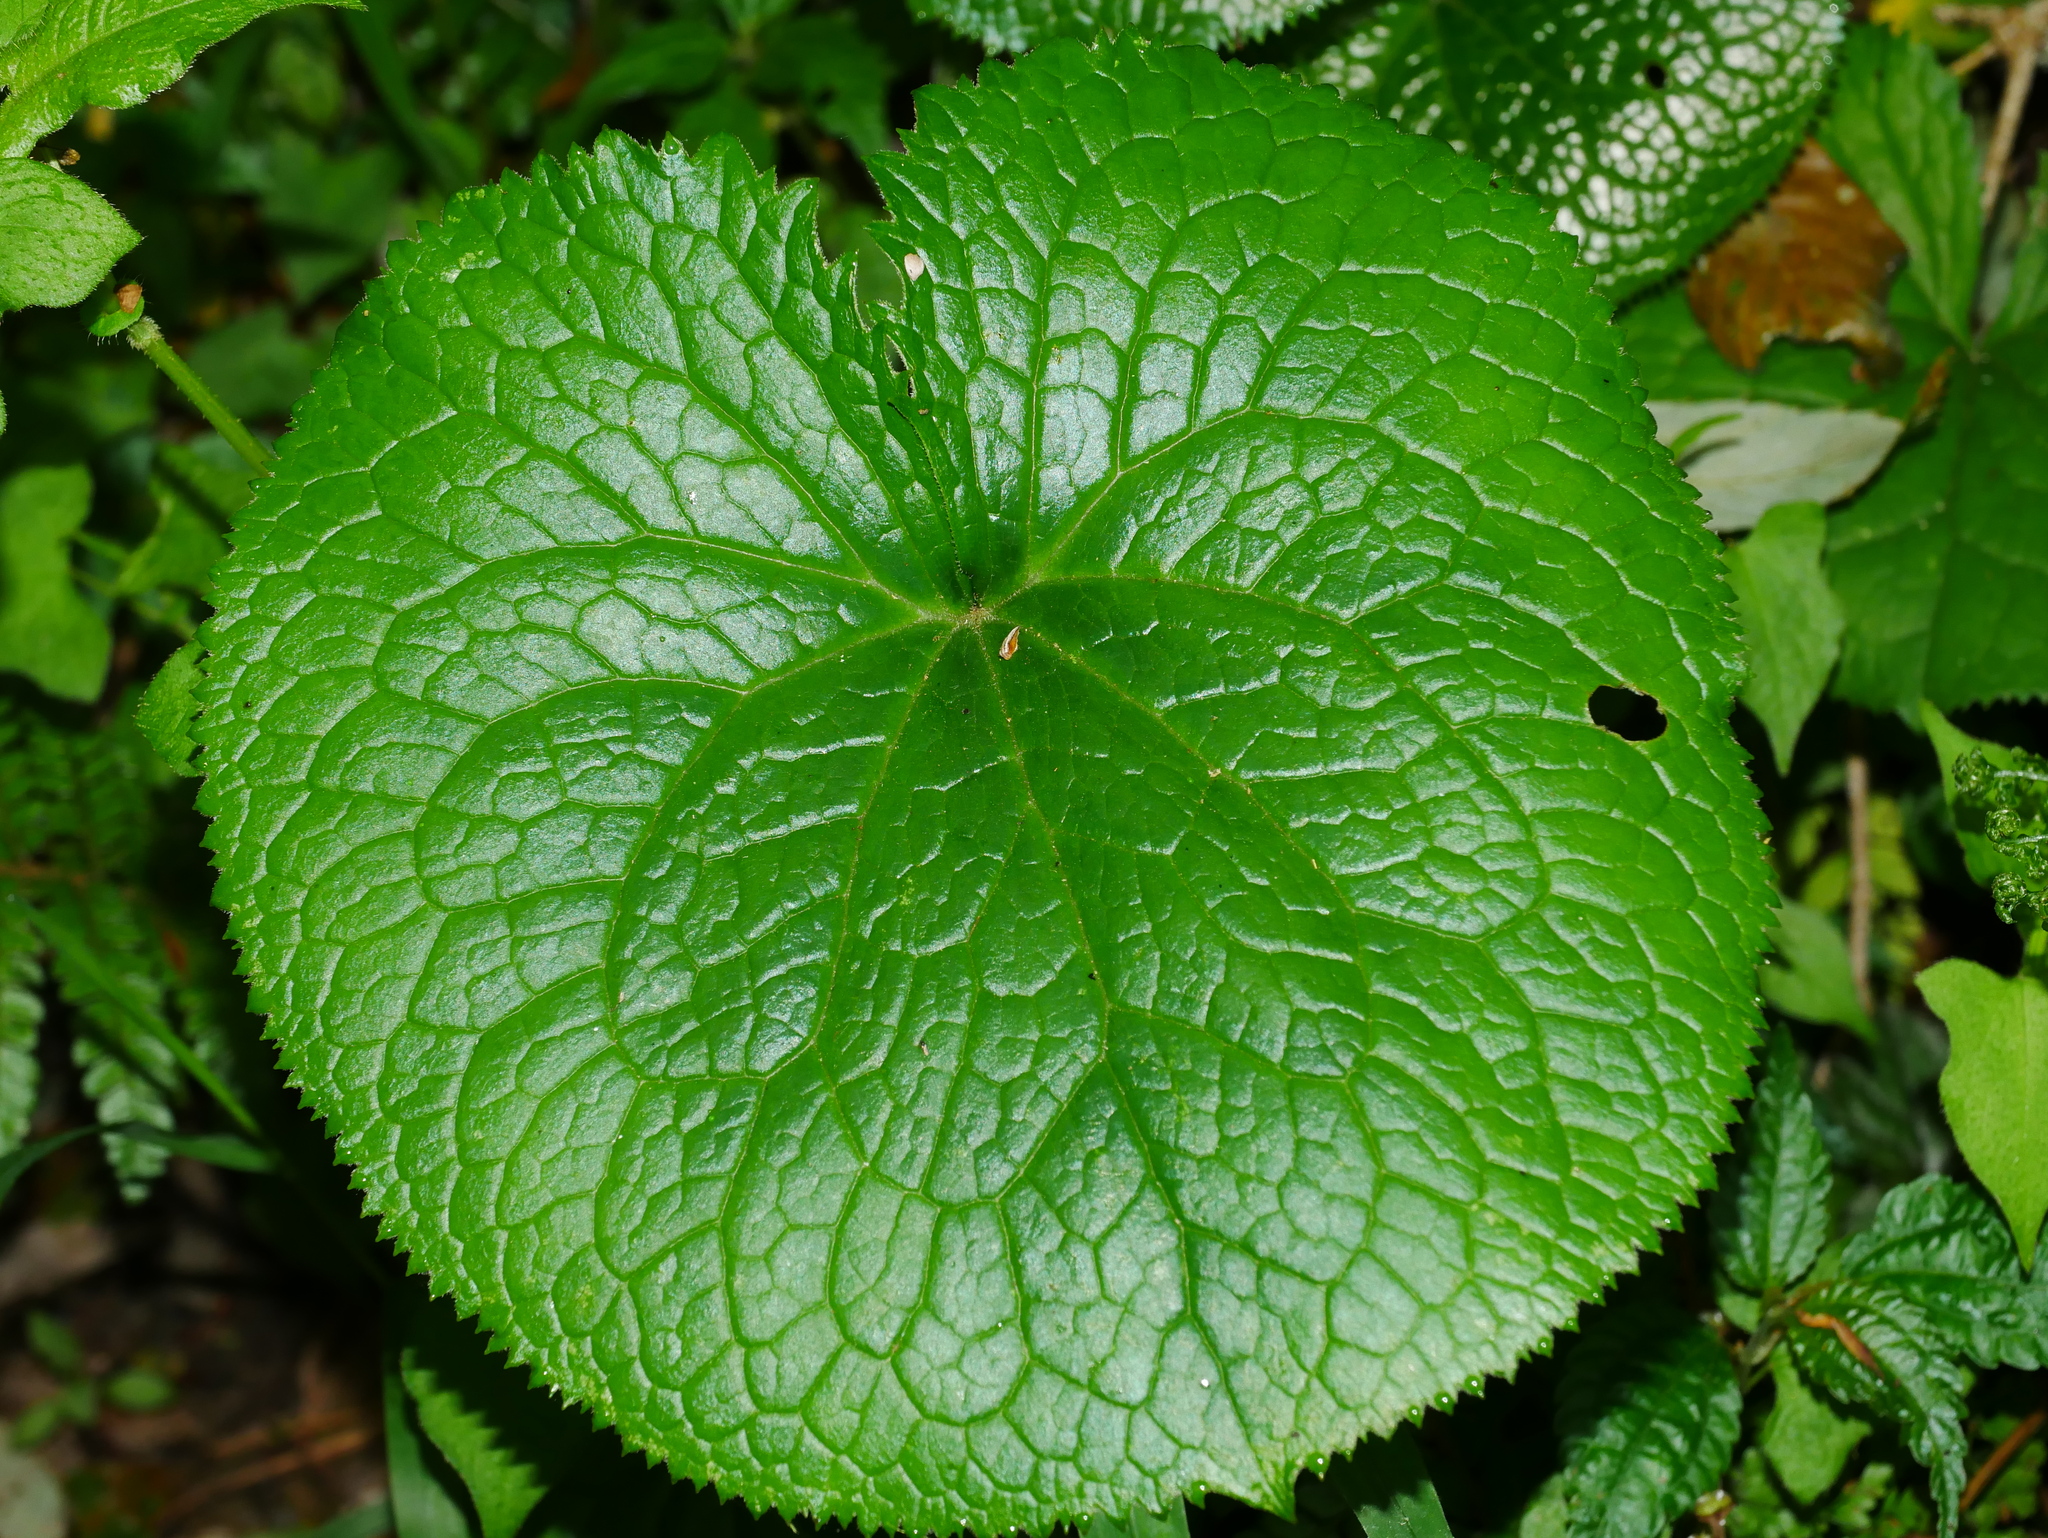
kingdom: Plantae
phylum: Tracheophyta
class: Magnoliopsida
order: Asterales
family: Asteraceae
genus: Ligularia
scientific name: Ligularia stenocephala
